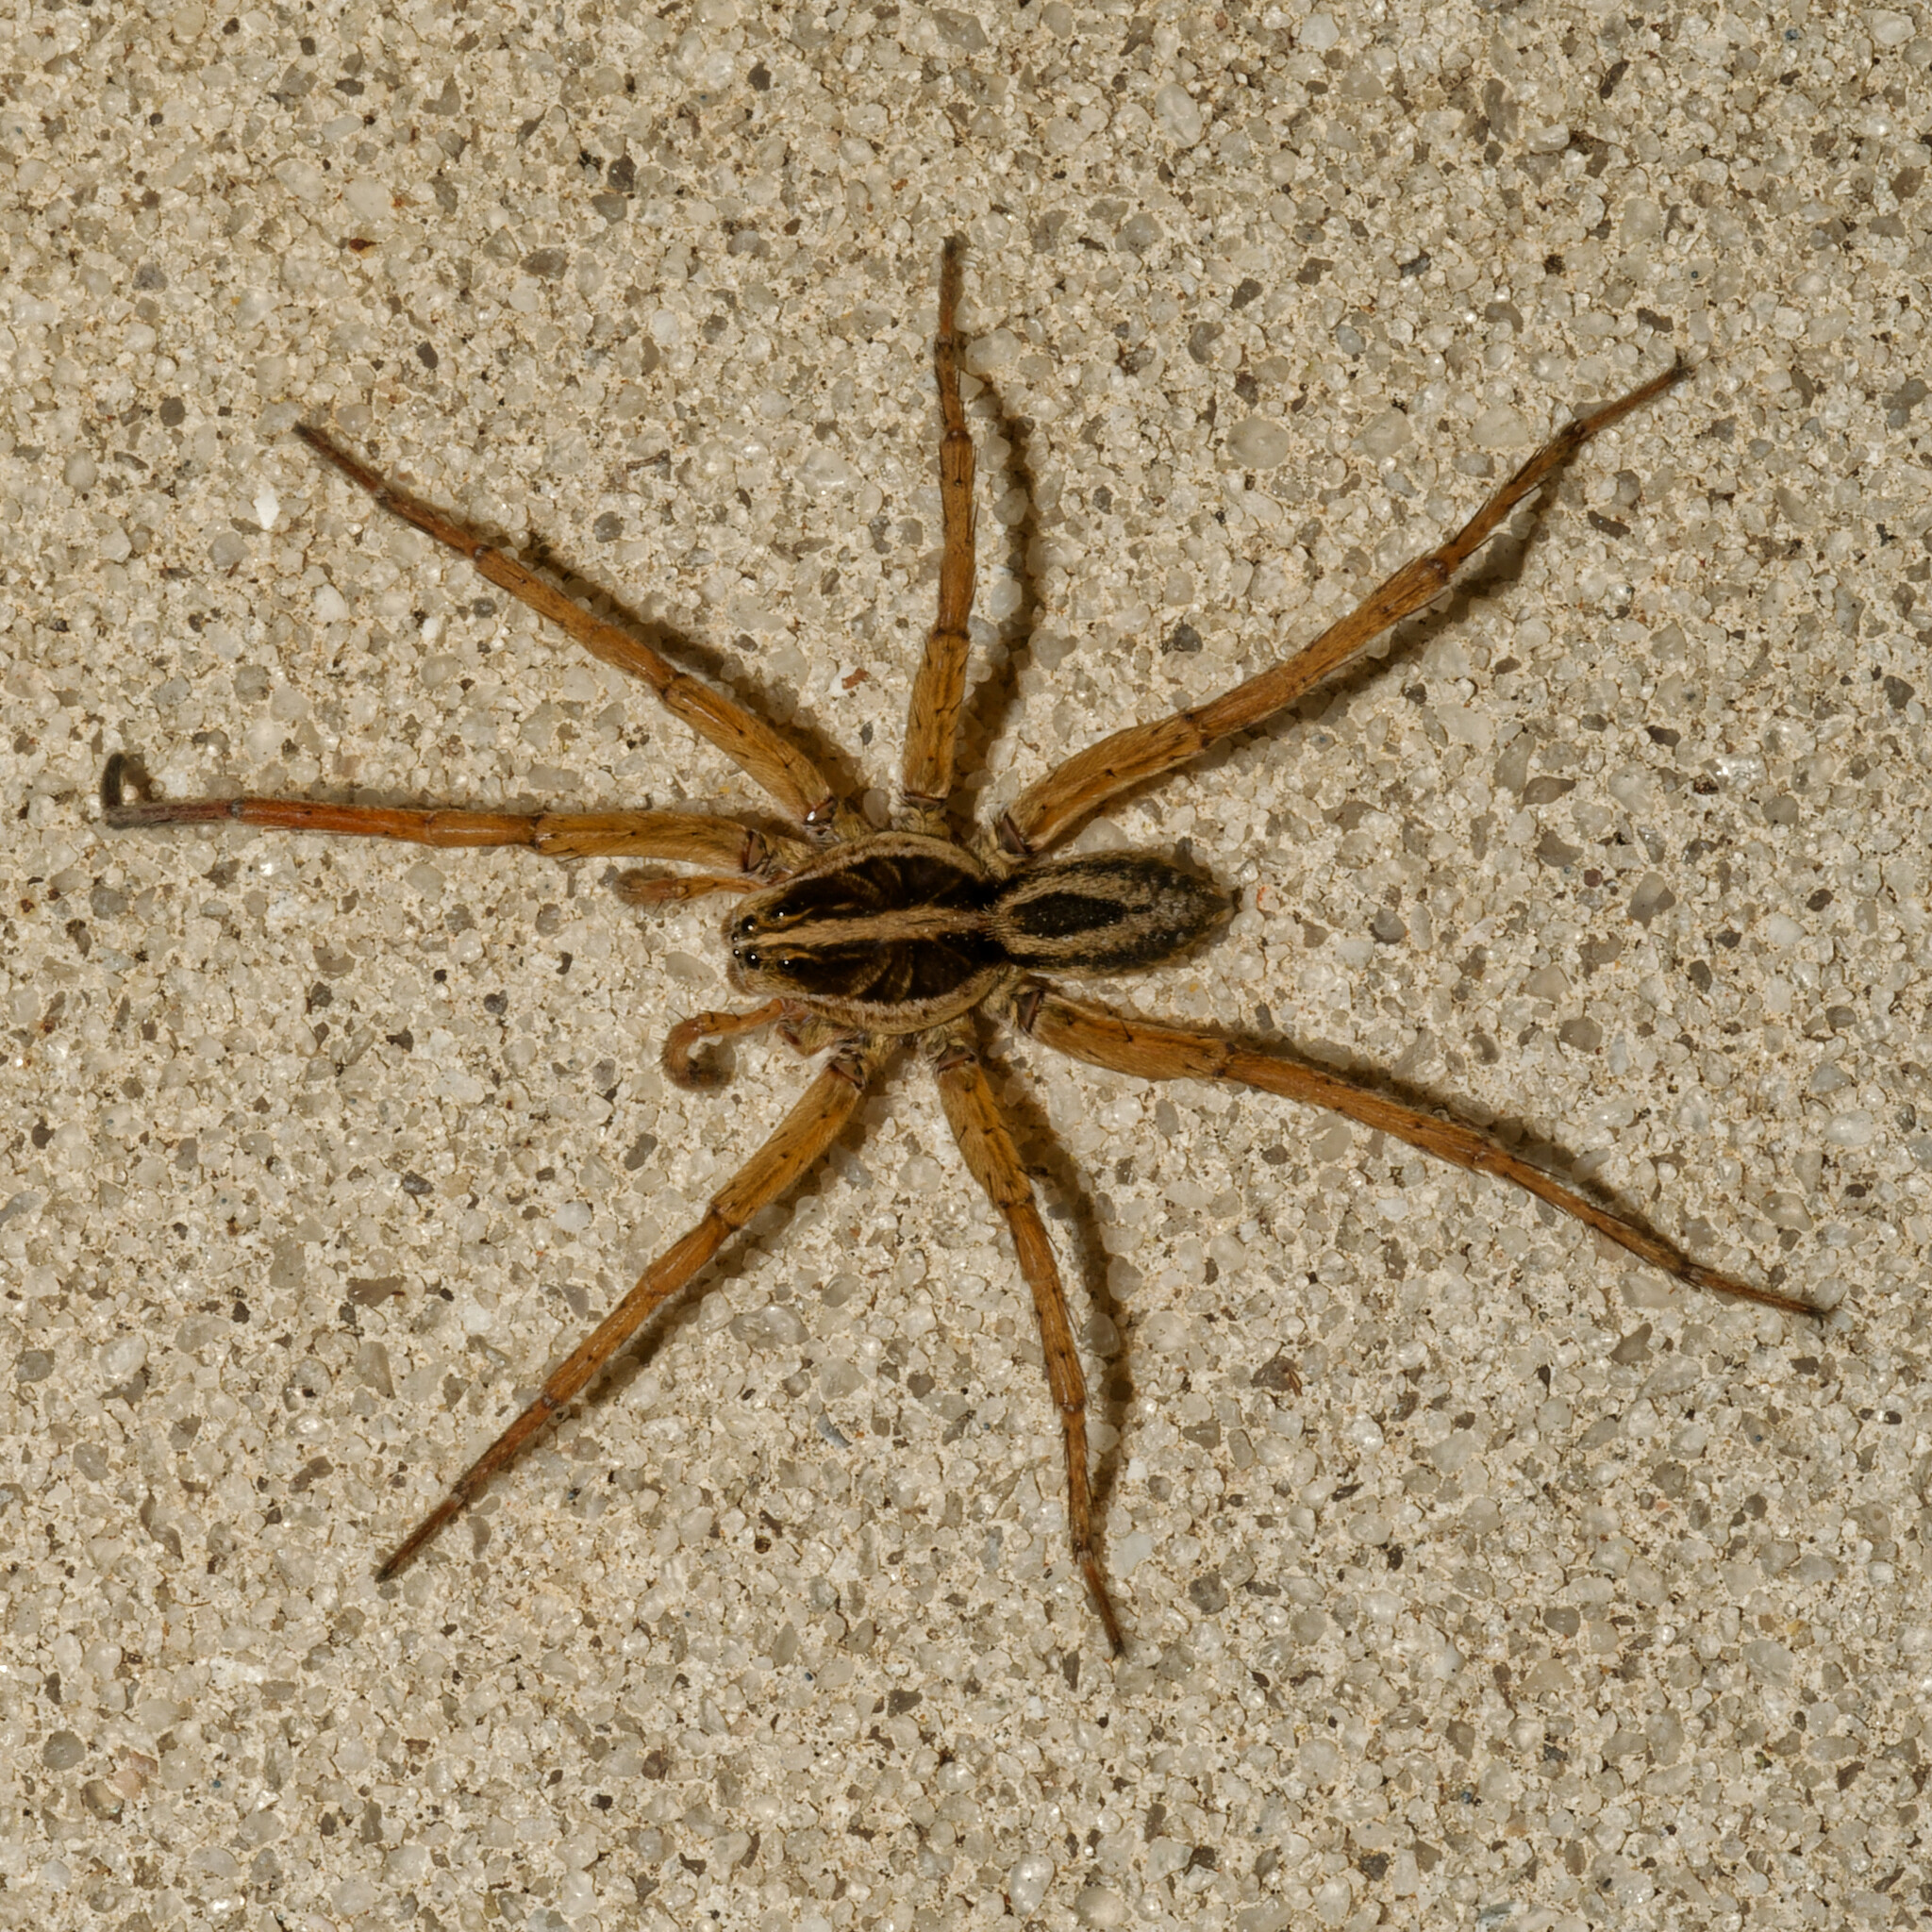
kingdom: Animalia
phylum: Arthropoda
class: Arachnida
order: Araneae
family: Lycosidae
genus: Tigrosa
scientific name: Tigrosa annexa
